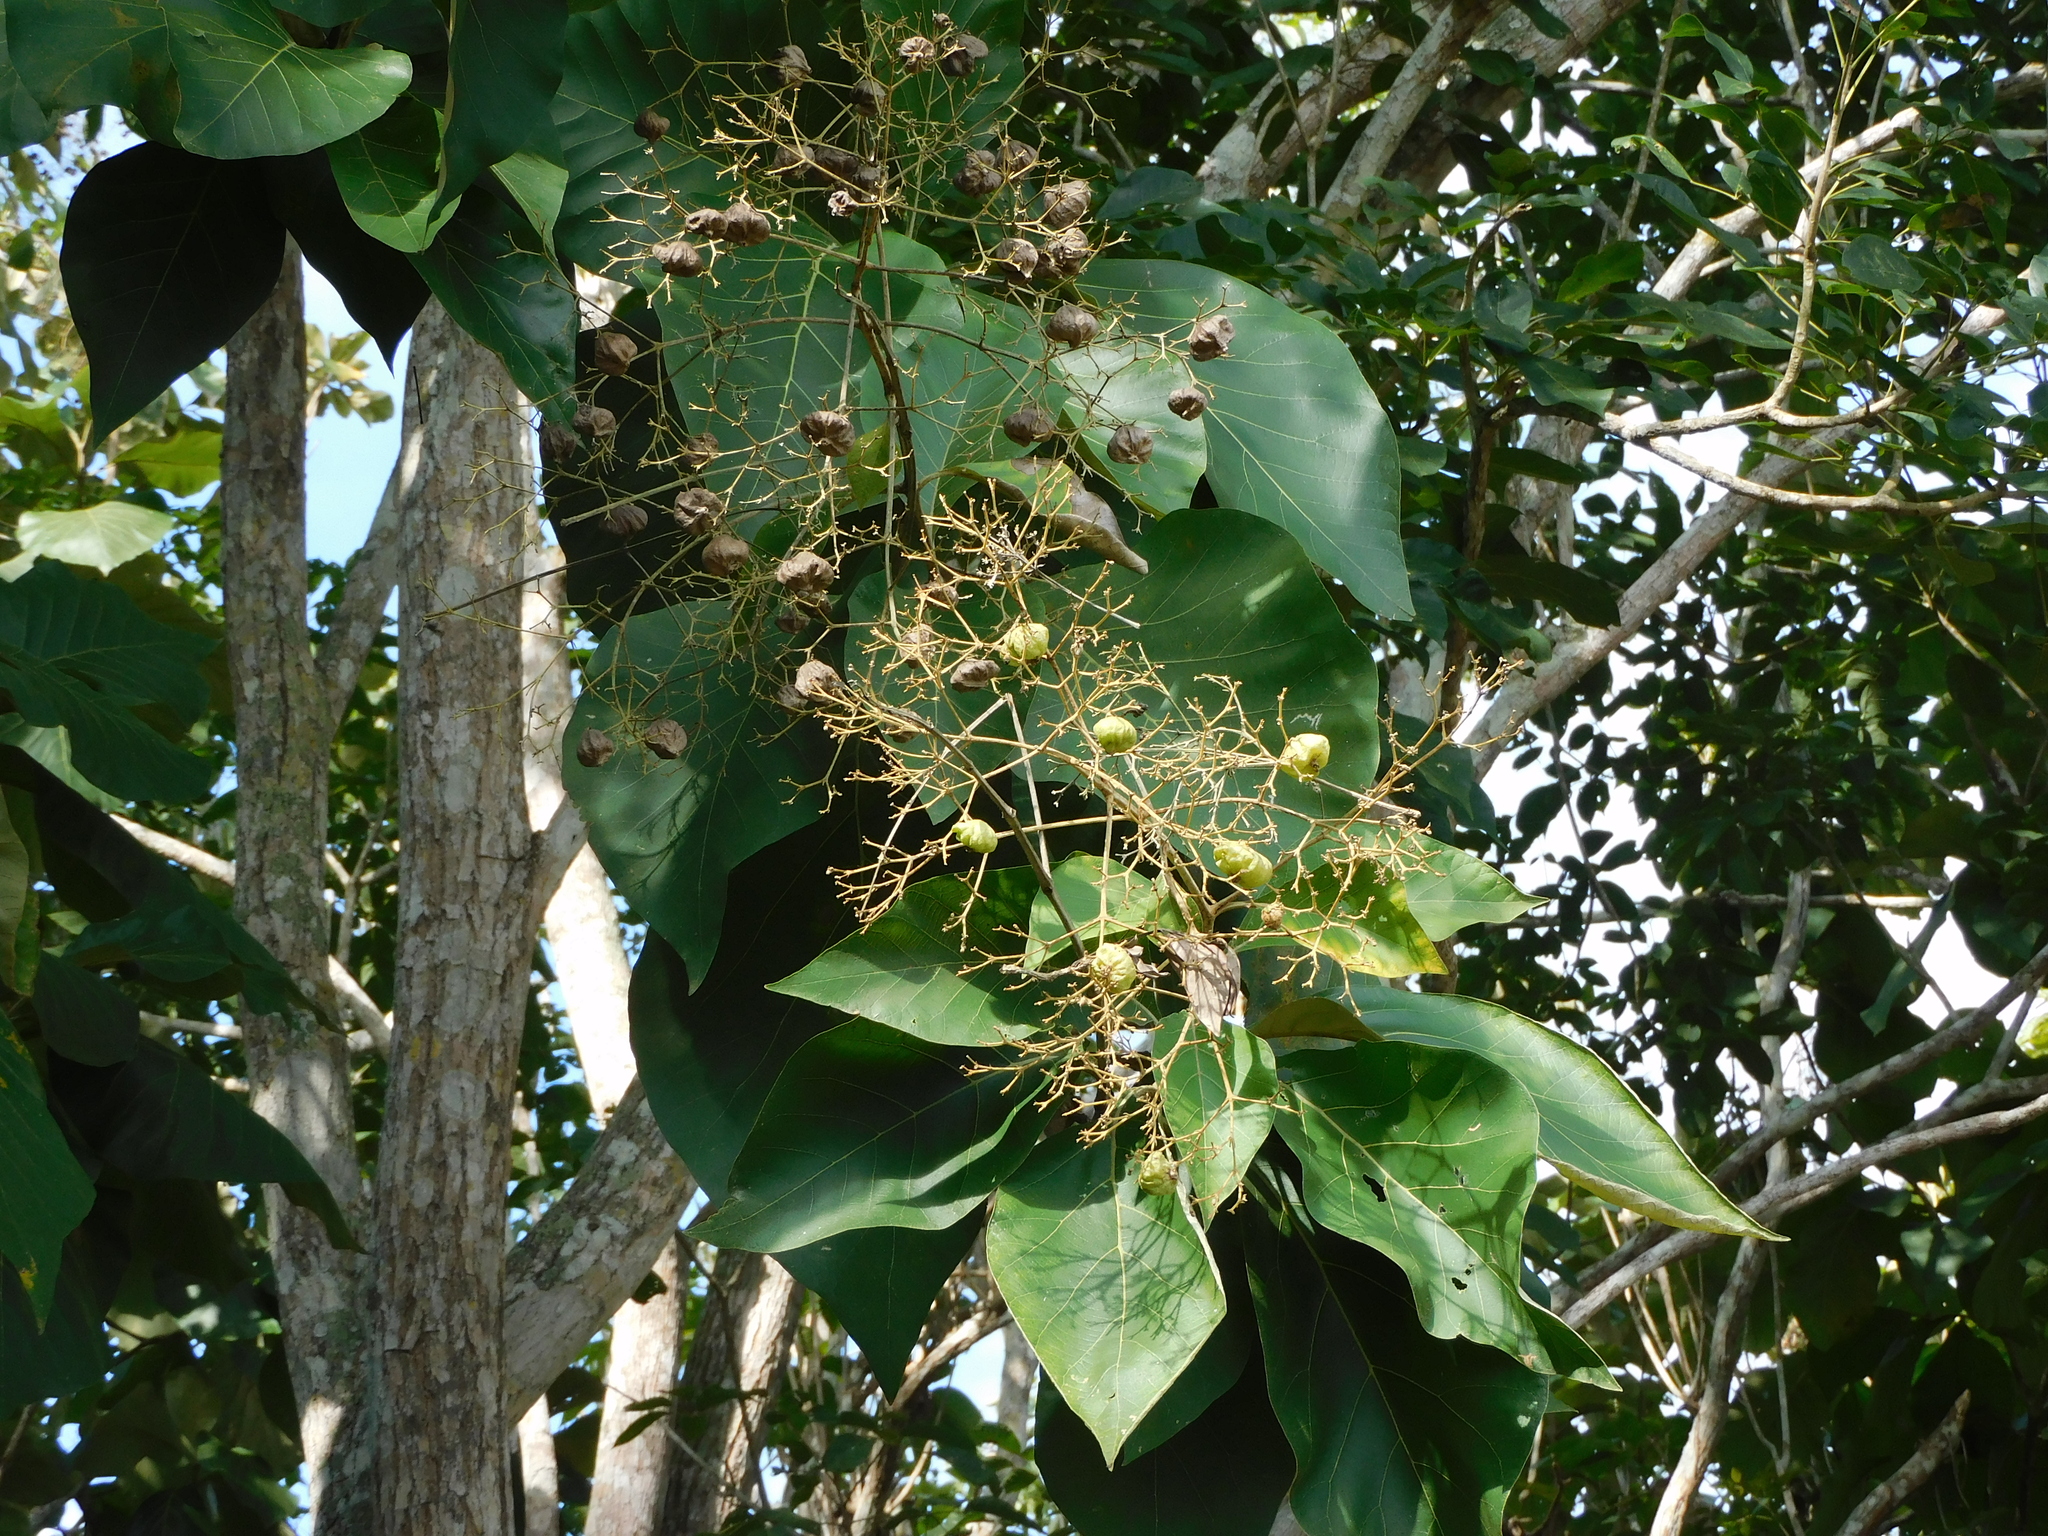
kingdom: Plantae
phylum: Tracheophyta
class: Magnoliopsida
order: Lamiales
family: Lamiaceae
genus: Tectona
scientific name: Tectona grandis
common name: Teak
